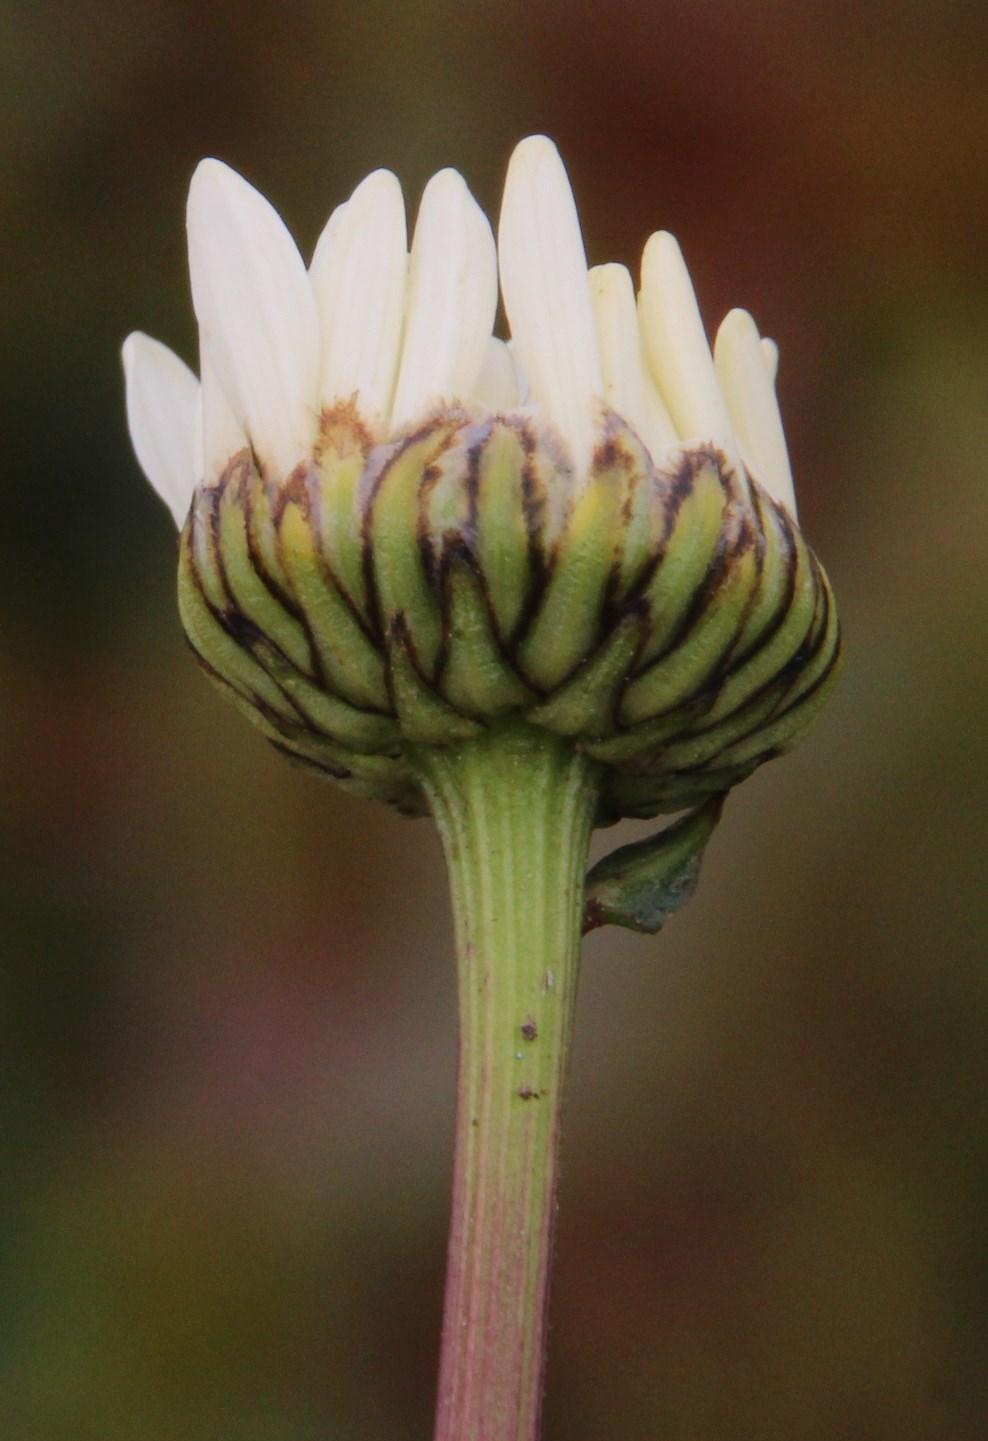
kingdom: Plantae
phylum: Tracheophyta
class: Magnoliopsida
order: Asterales
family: Asteraceae
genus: Leucanthemum
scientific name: Leucanthemum vulgare
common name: Oxeye daisy
